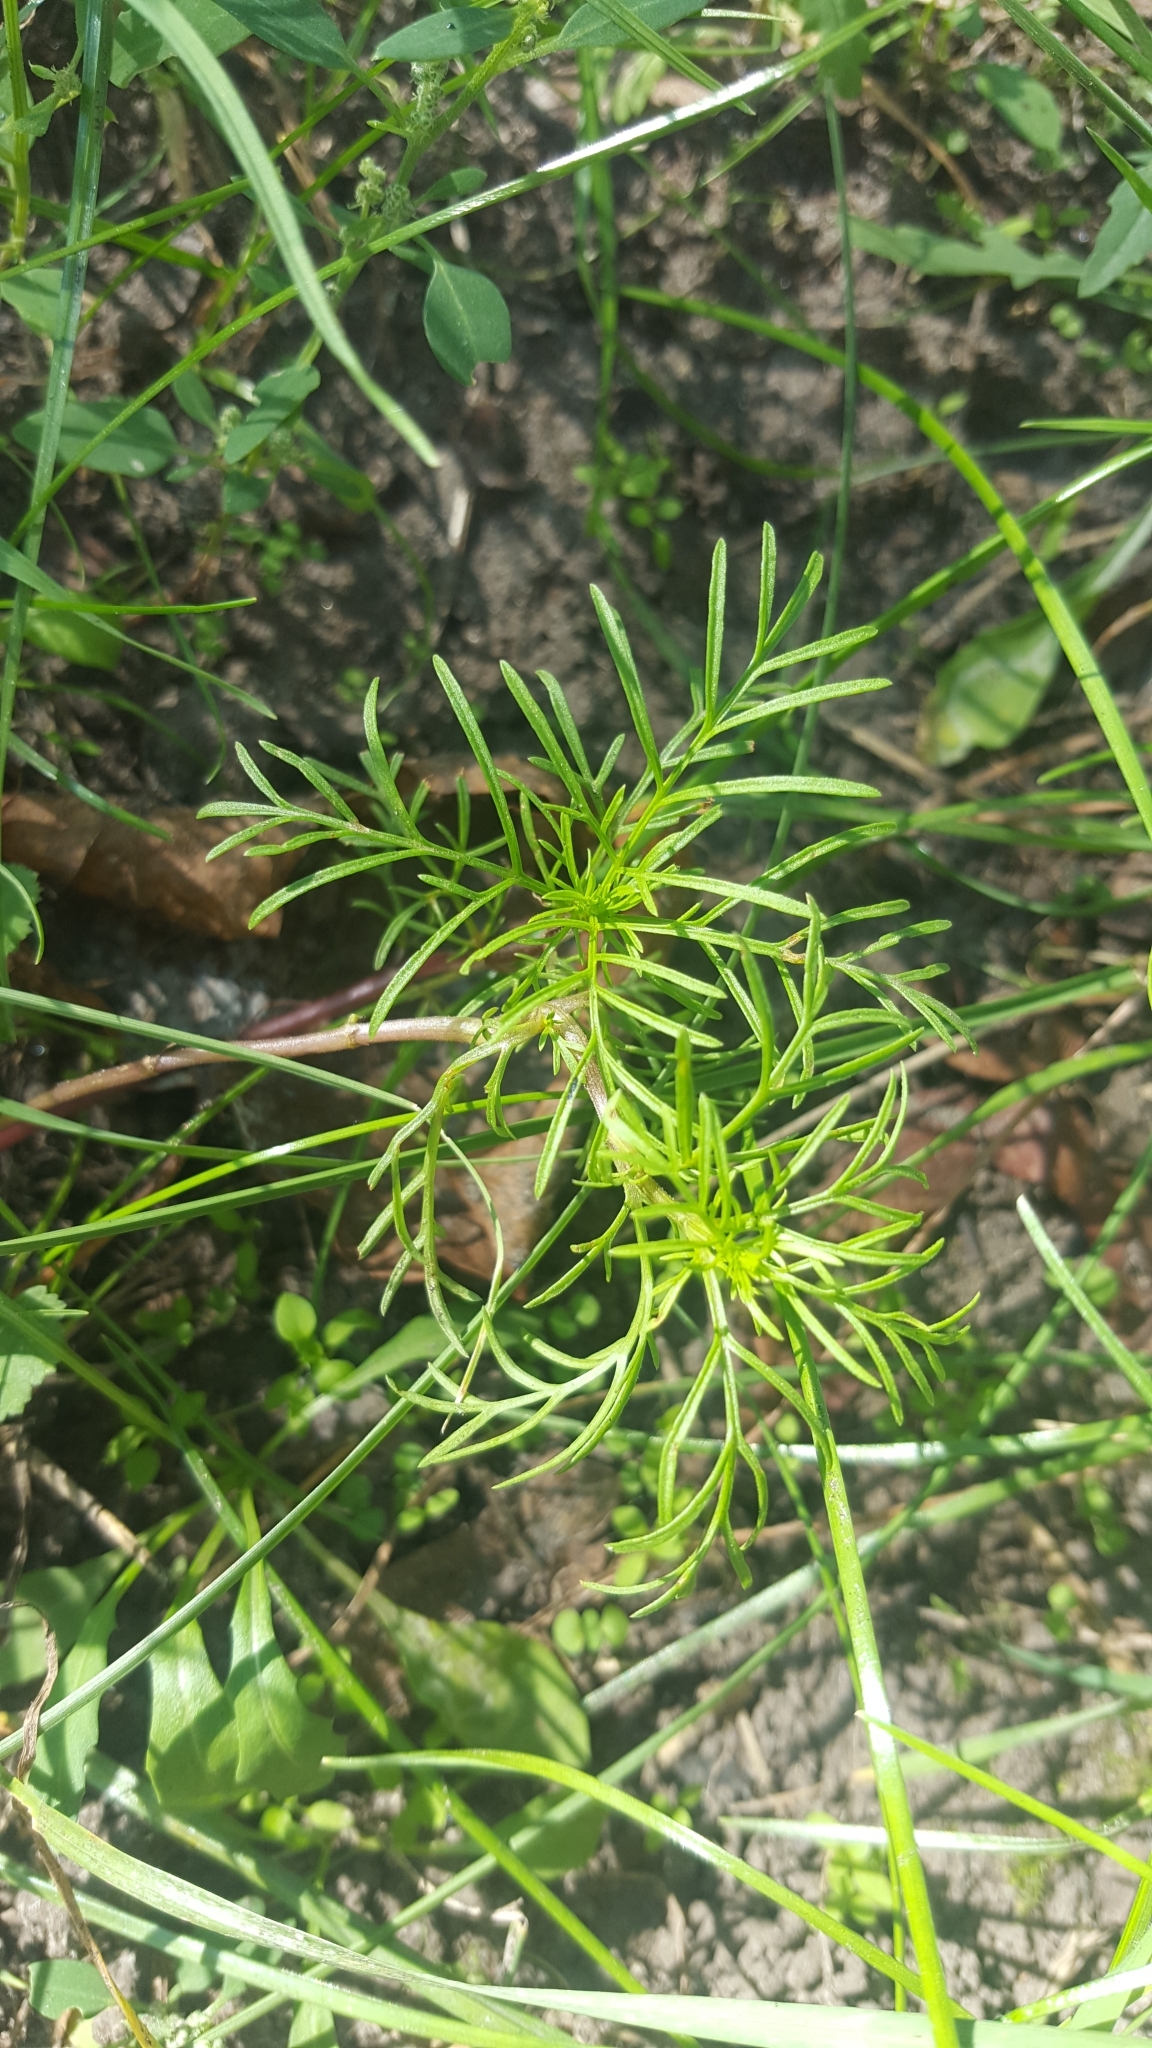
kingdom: Plantae
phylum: Tracheophyta
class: Magnoliopsida
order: Asterales
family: Asteraceae
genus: Cosmos
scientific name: Cosmos bipinnatus
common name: Garden cosmos
